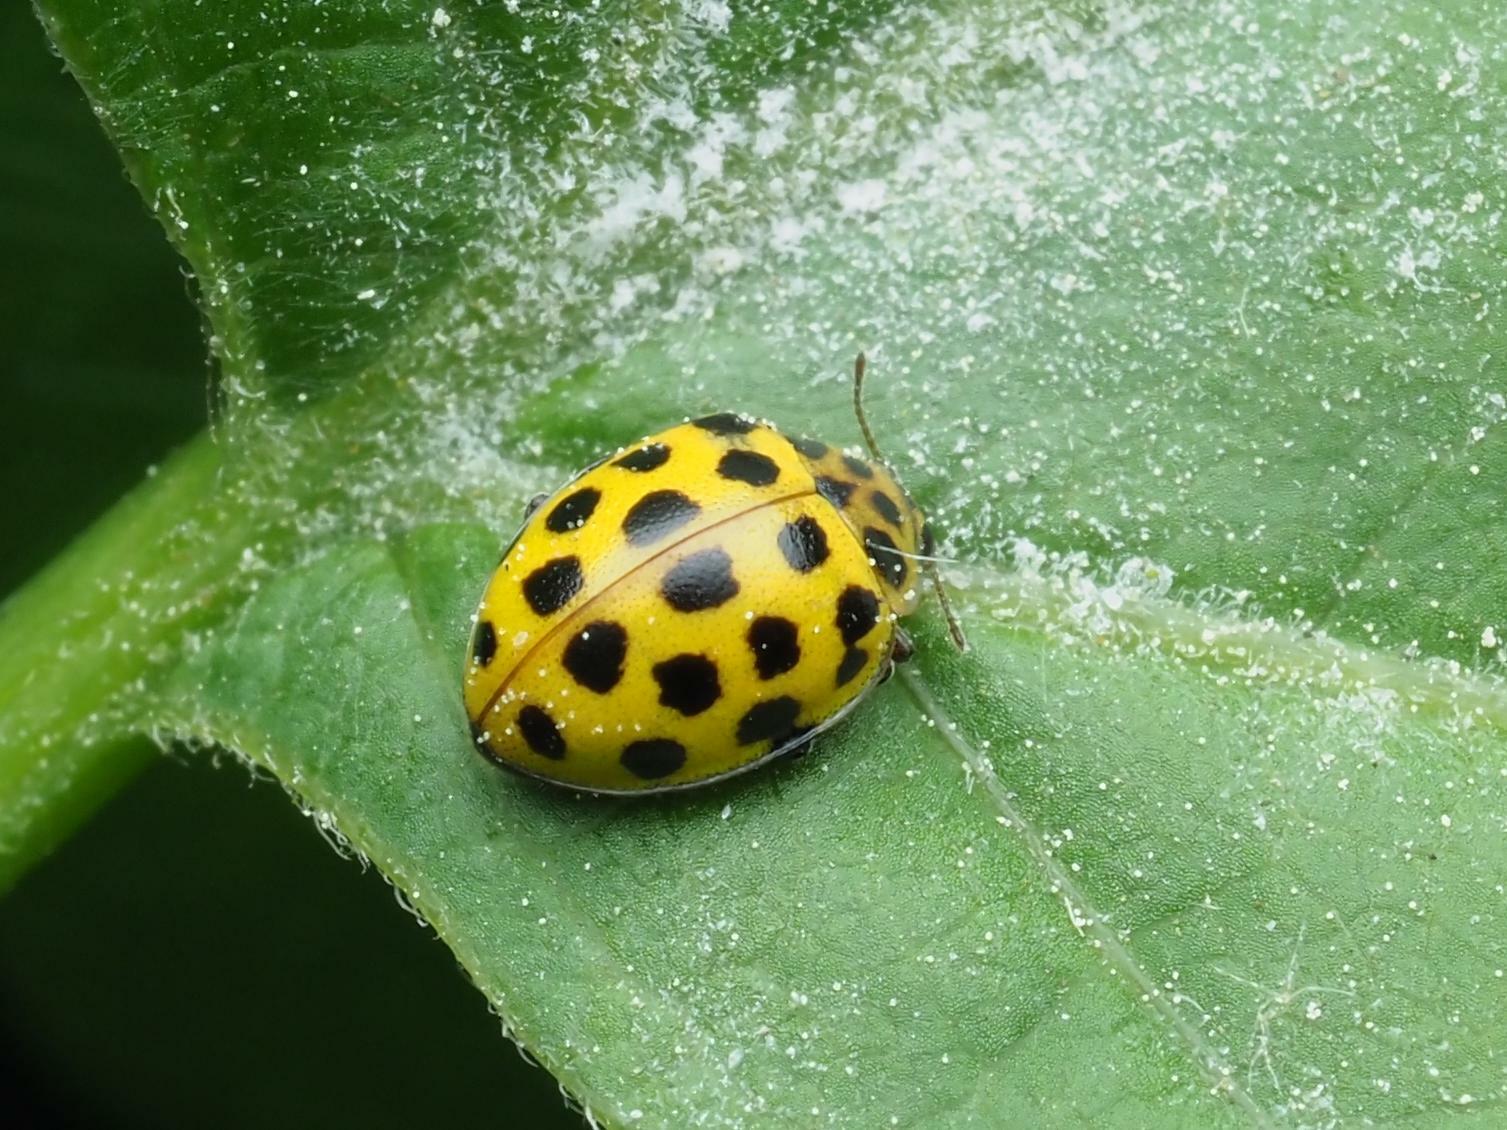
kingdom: Animalia
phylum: Arthropoda
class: Insecta
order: Coleoptera
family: Coccinellidae
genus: Psyllobora
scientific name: Psyllobora vigintiduopunctata
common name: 22-spot ladybird
